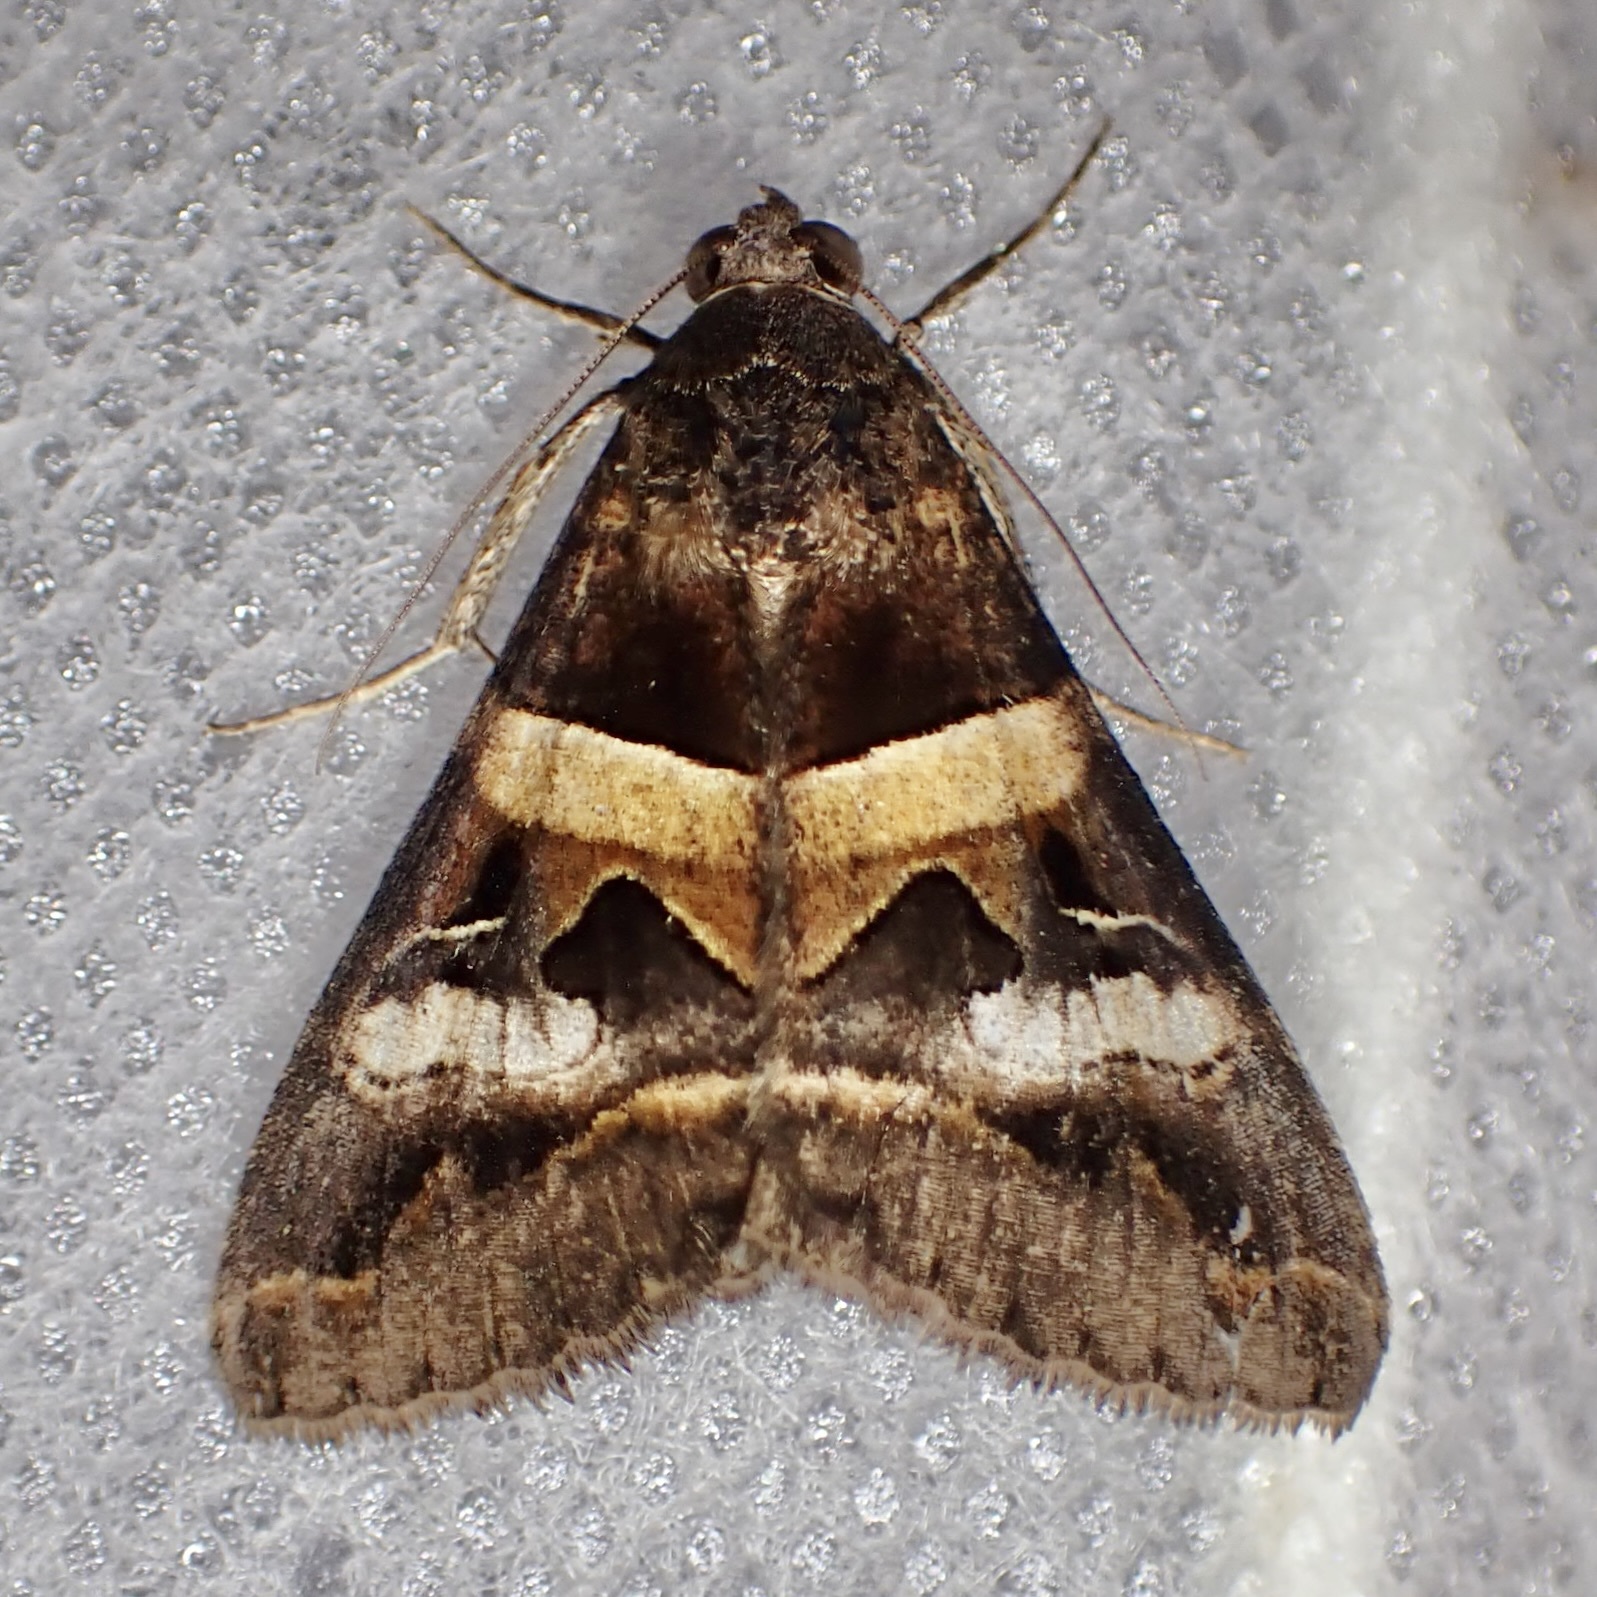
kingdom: Animalia
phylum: Arthropoda
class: Insecta
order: Lepidoptera
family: Erebidae
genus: Melipotis
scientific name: Melipotis perpendicularis
